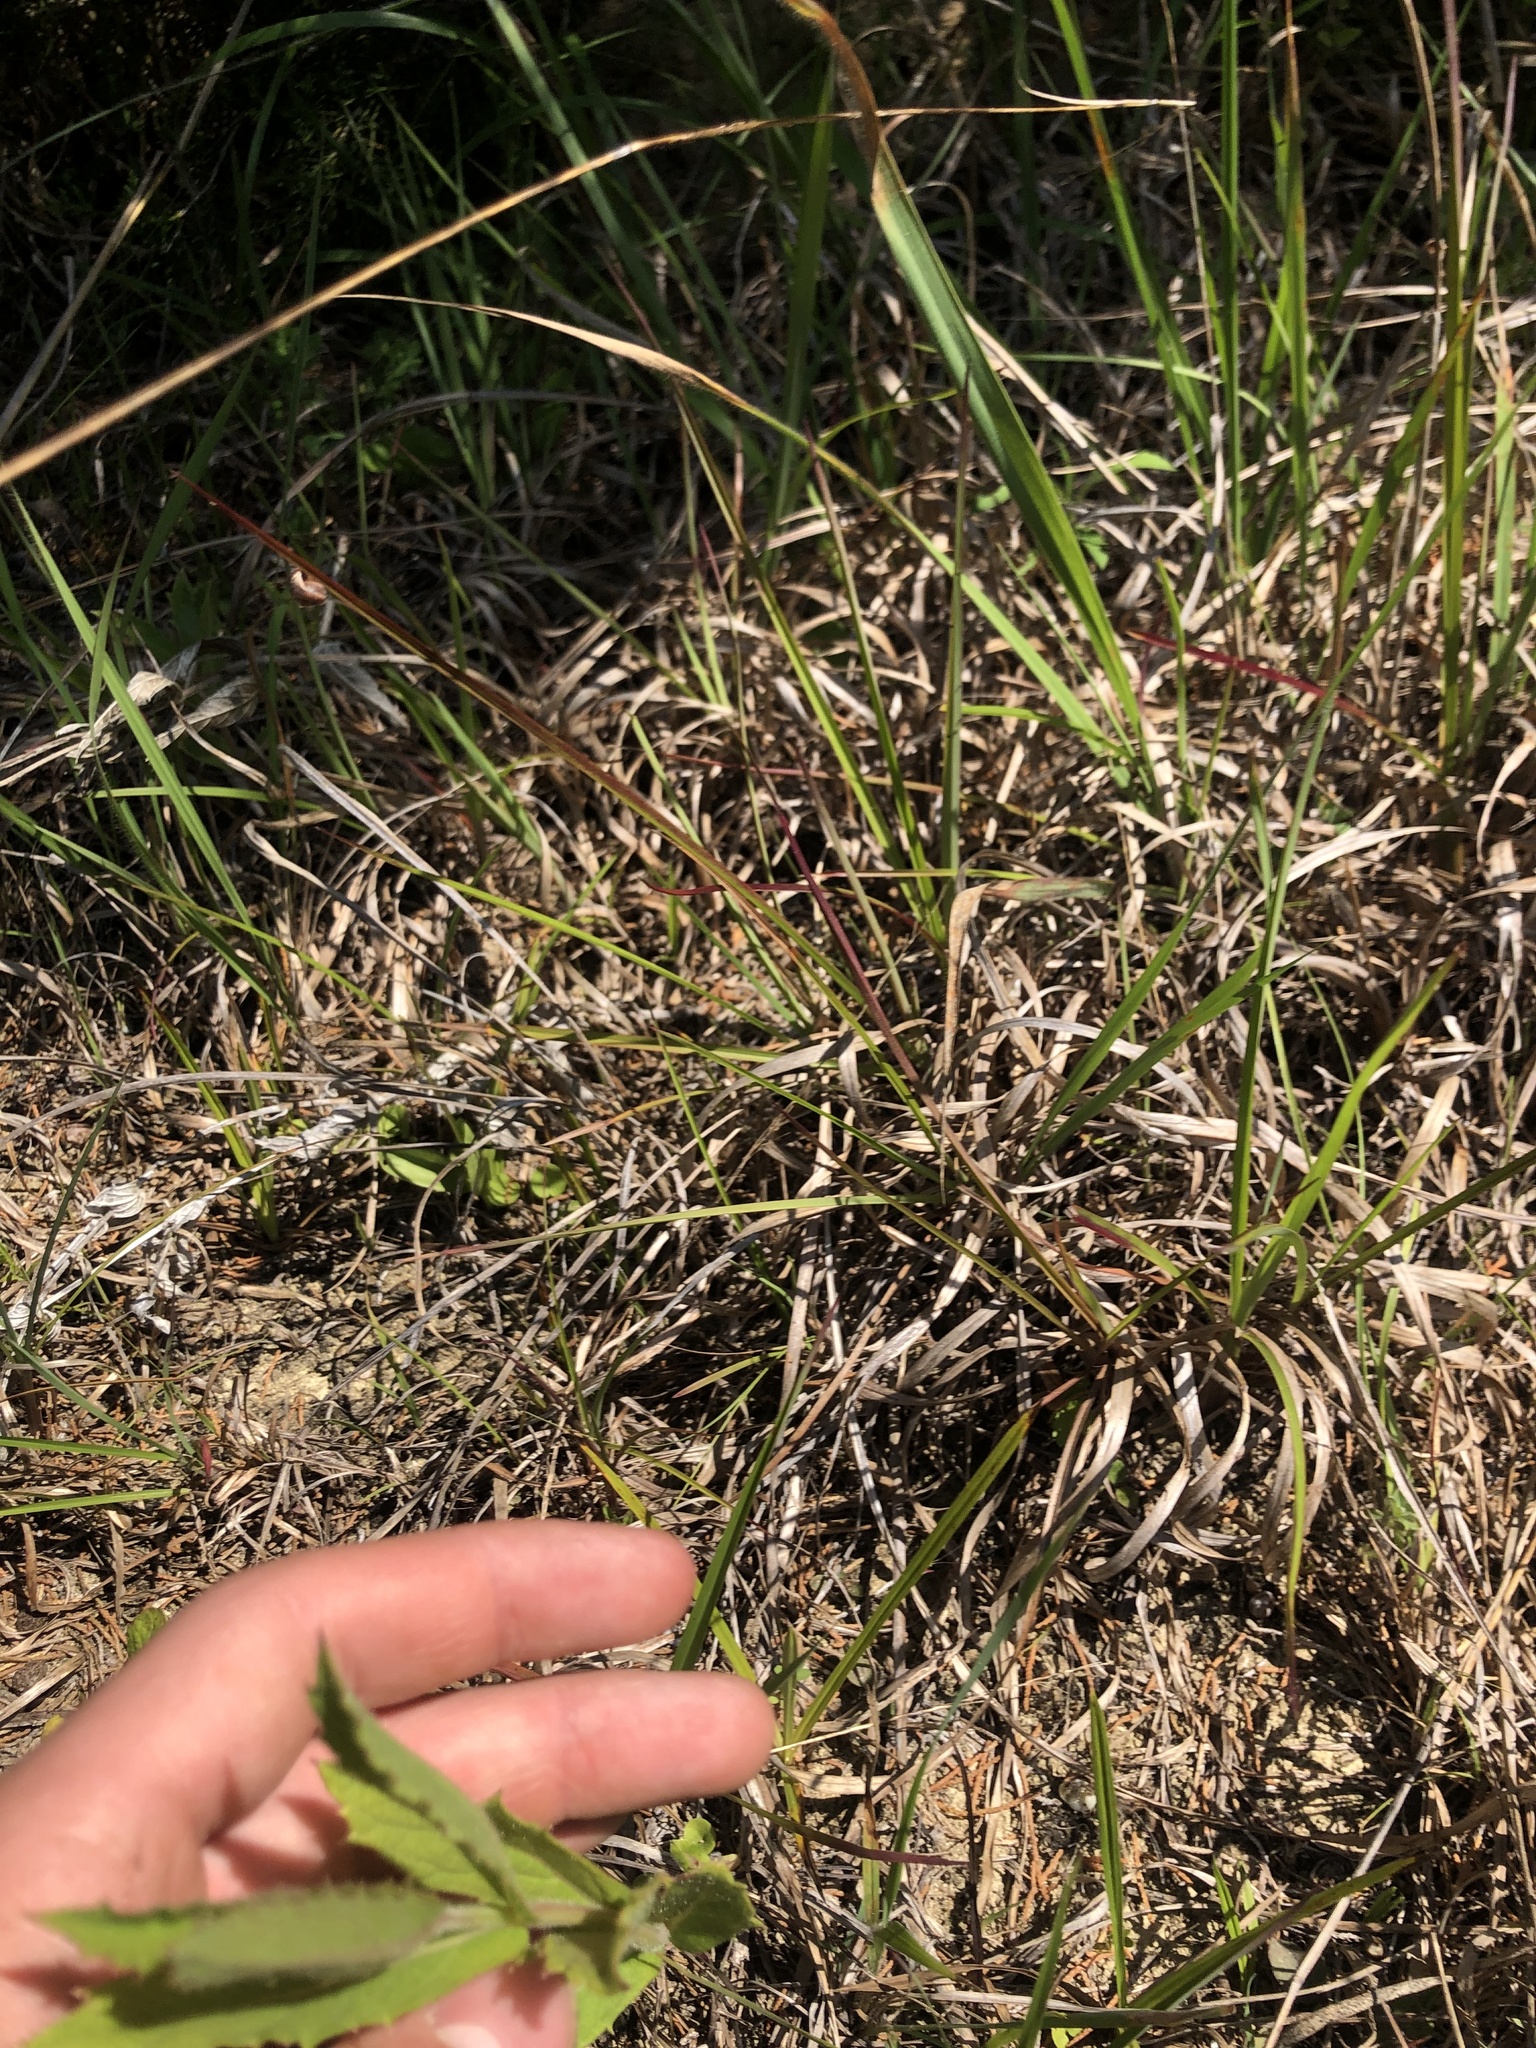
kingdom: Plantae
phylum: Tracheophyta
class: Magnoliopsida
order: Lamiales
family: Verbenaceae
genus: Verbena
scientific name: Verbena simplex
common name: Narrow-leaf vervain
